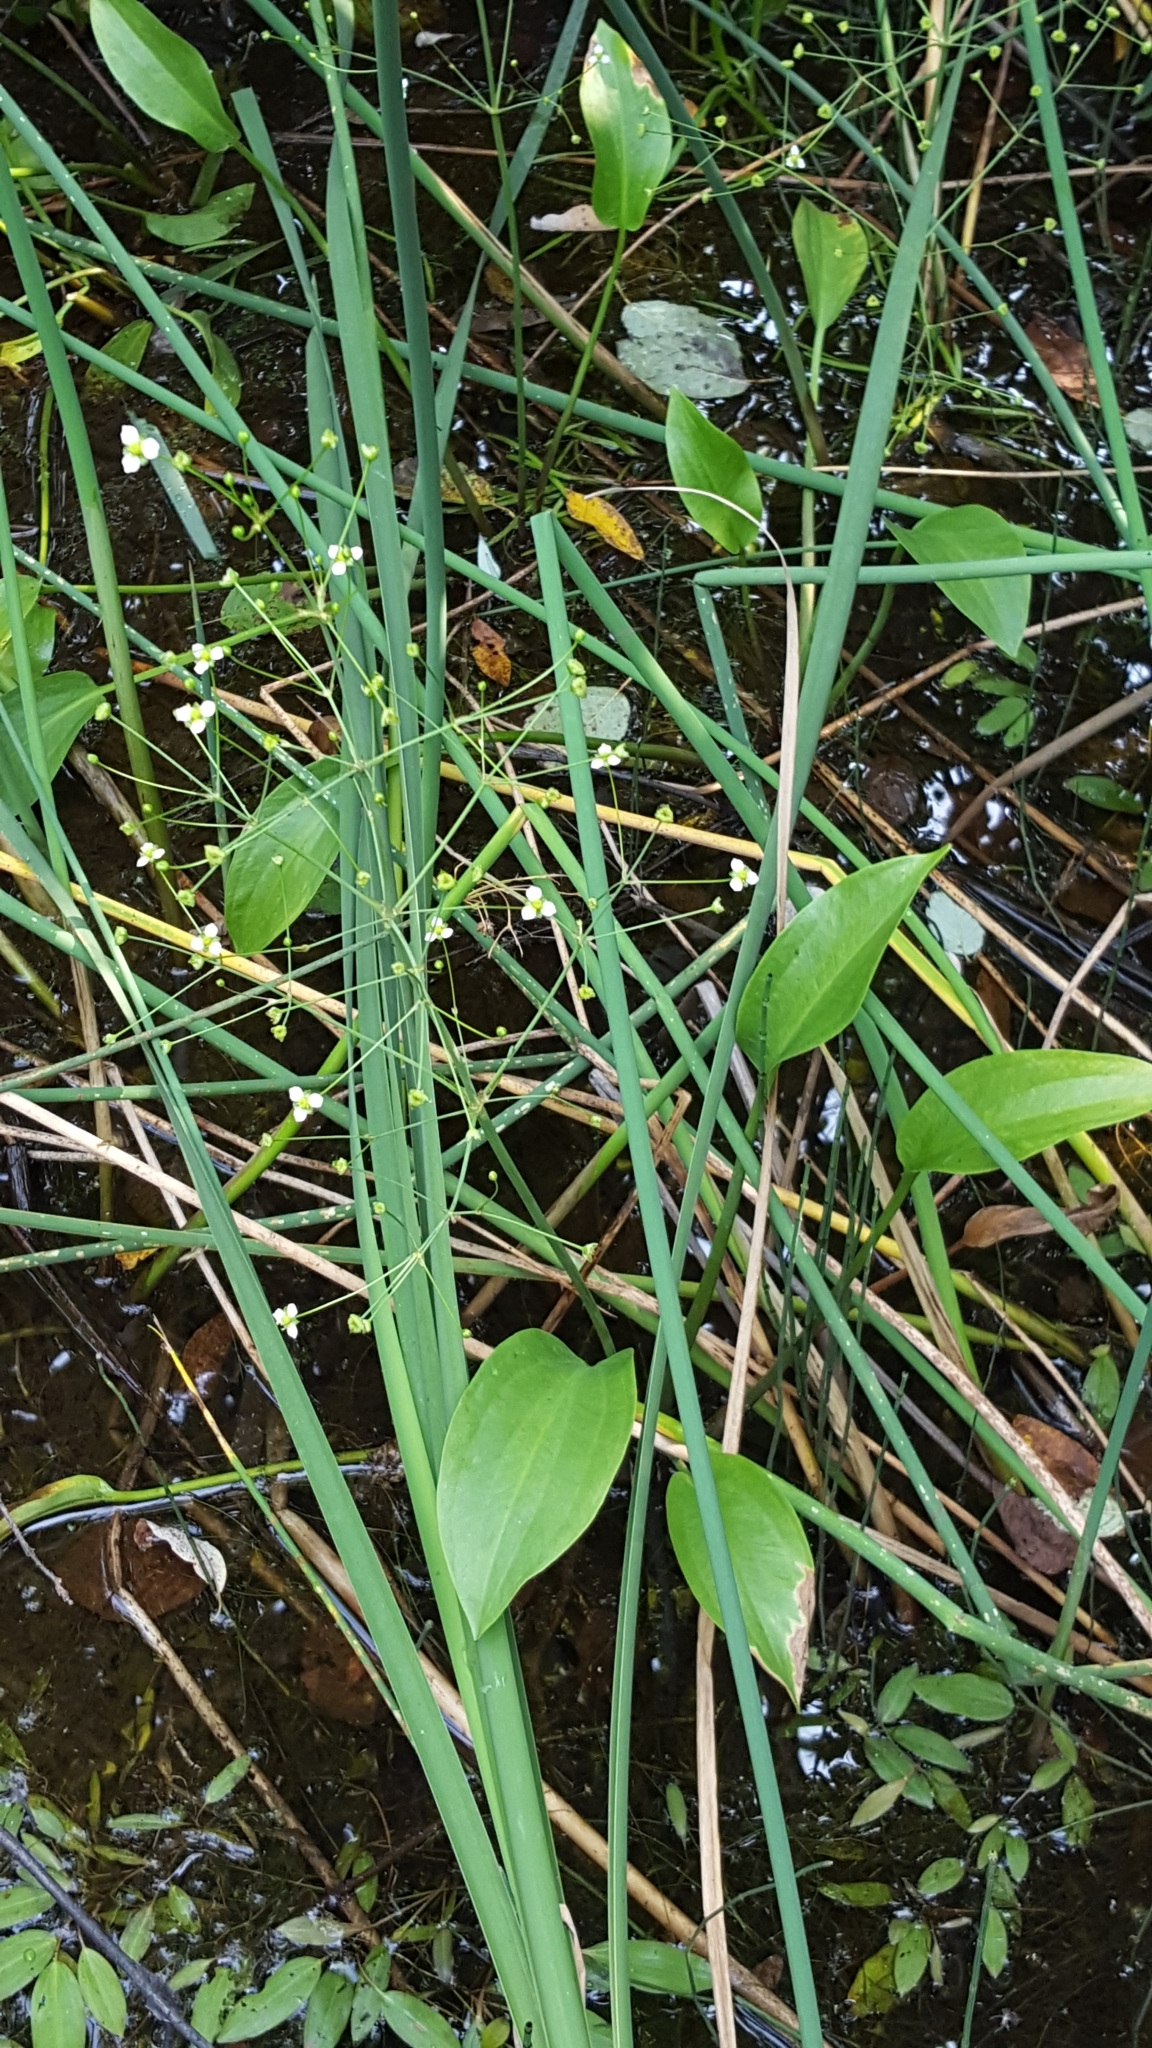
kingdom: Plantae
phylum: Tracheophyta
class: Liliopsida
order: Alismatales
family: Alismataceae
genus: Alisma
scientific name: Alisma triviale
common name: Northern water-plantain
